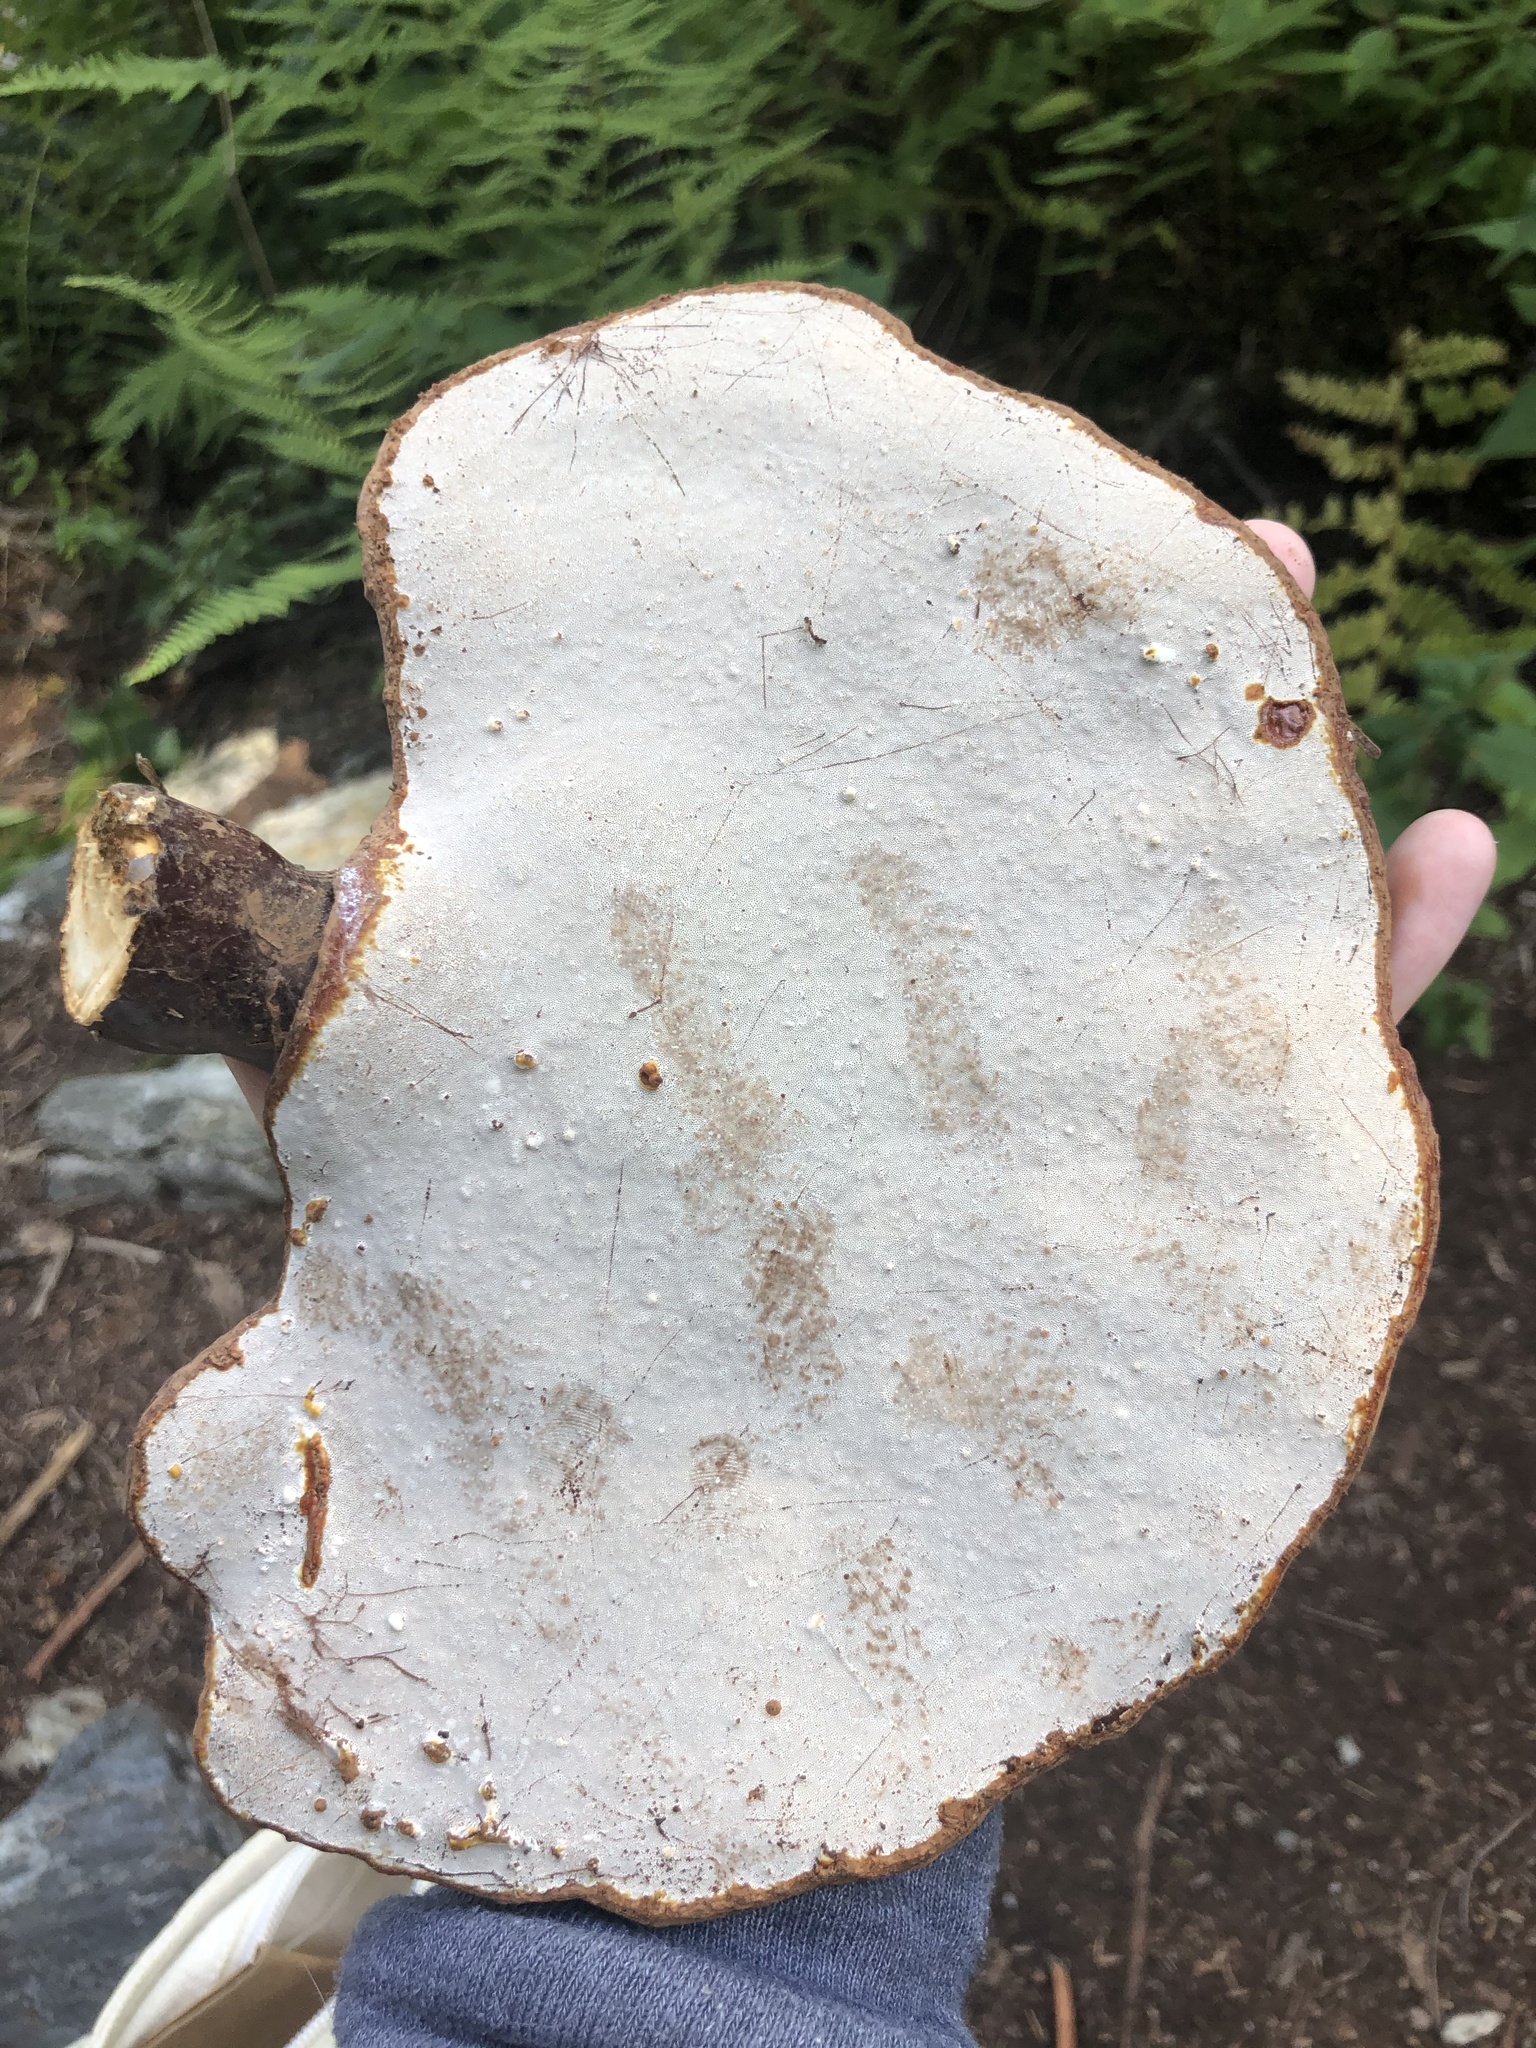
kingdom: Fungi
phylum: Basidiomycota
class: Agaricomycetes
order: Polyporales
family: Polyporaceae
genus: Ganoderma
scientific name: Ganoderma tsugae
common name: Hemlock varnish shelf
